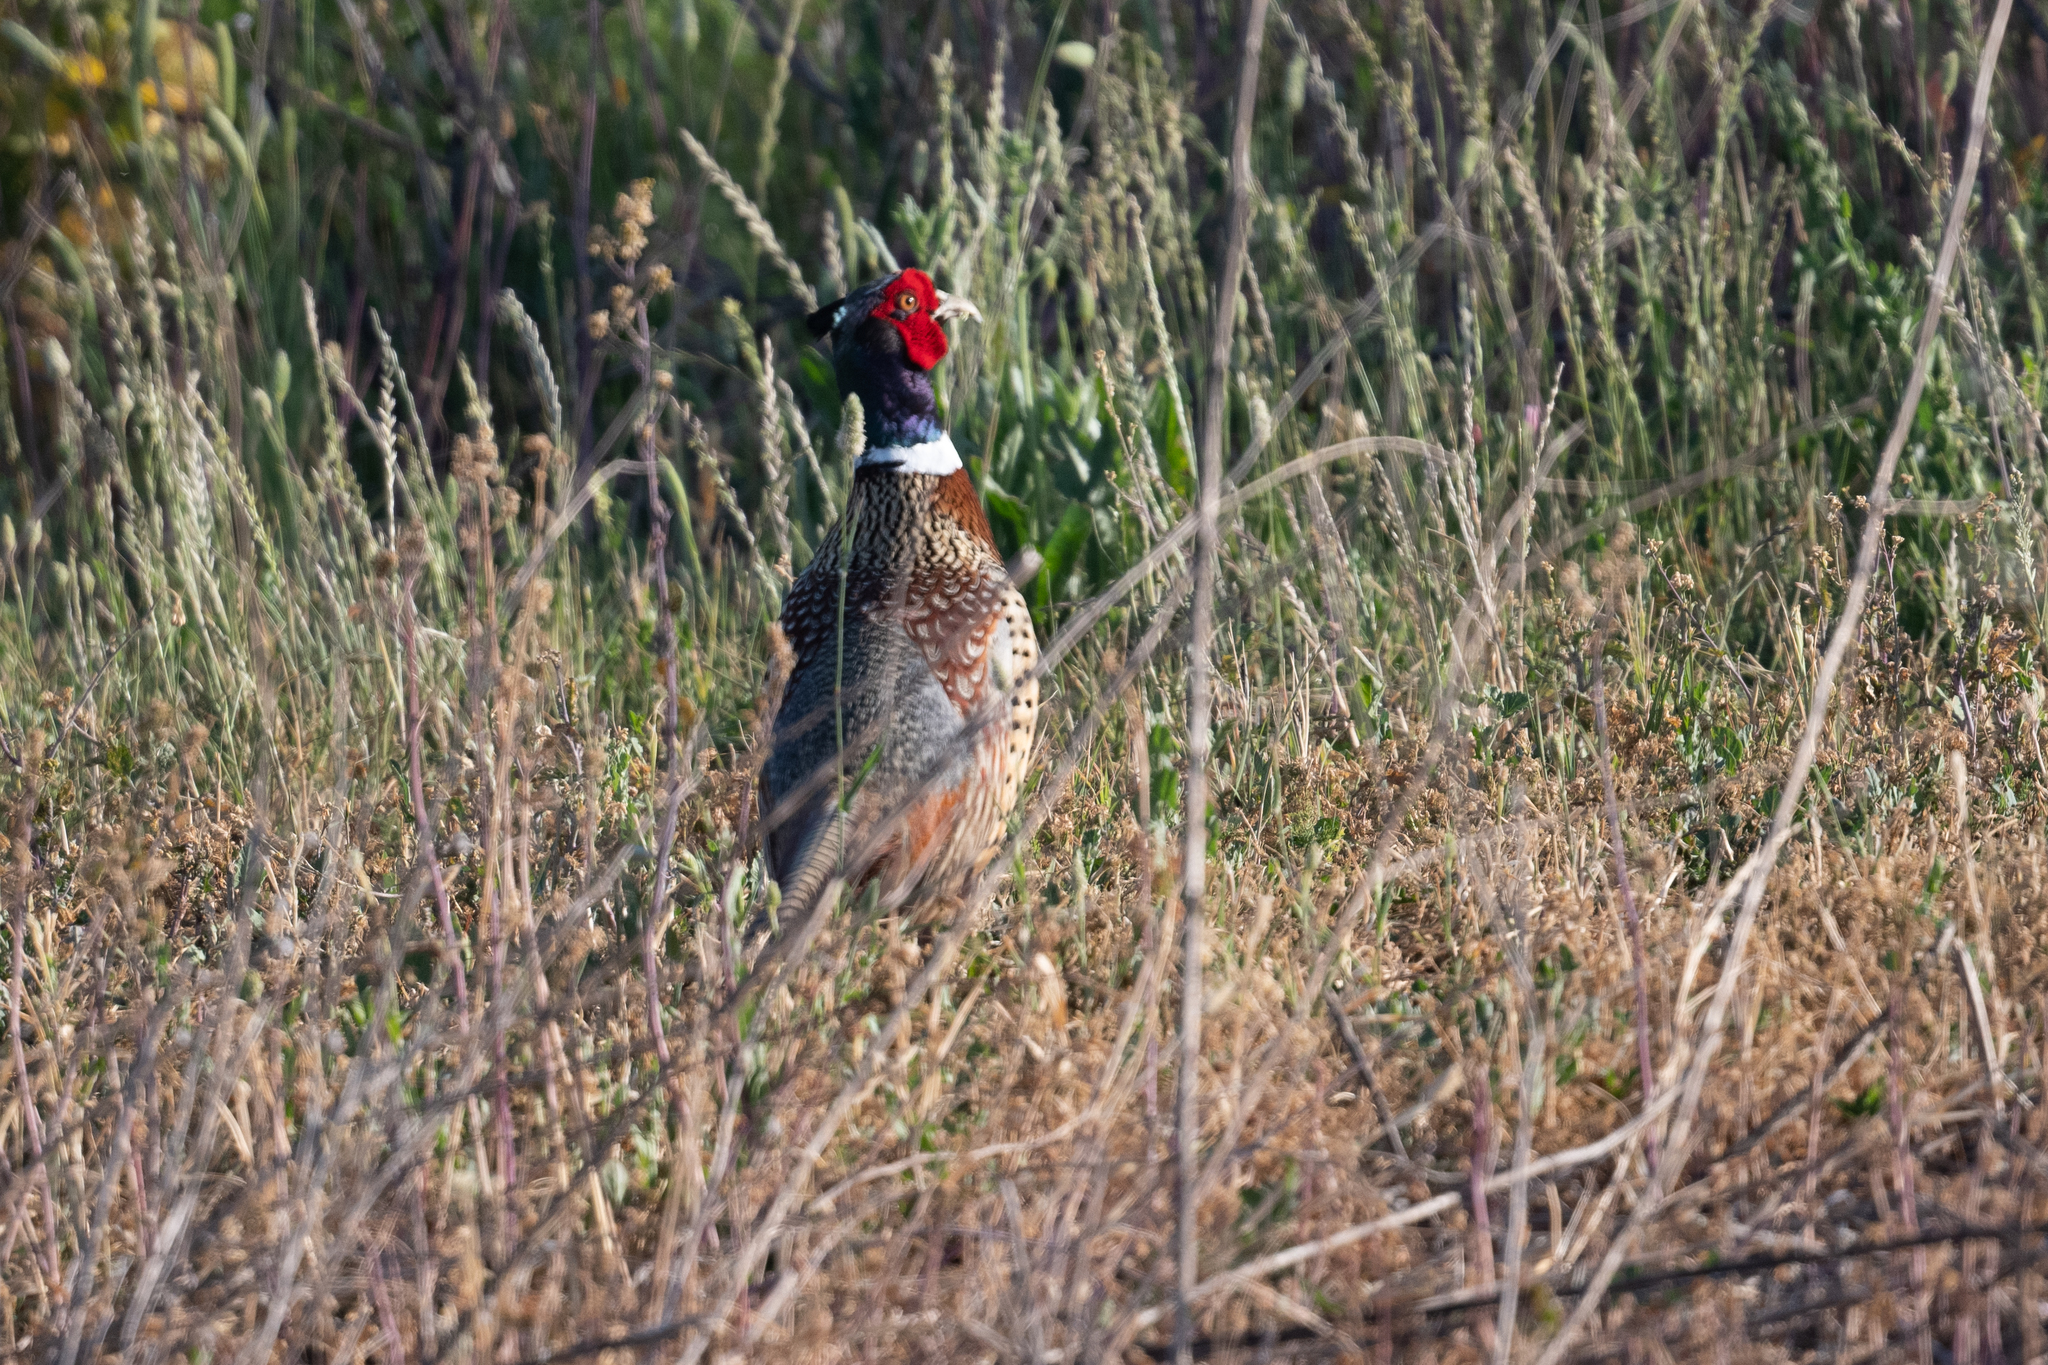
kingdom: Animalia
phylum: Chordata
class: Aves
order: Galliformes
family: Phasianidae
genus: Phasianus
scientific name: Phasianus colchicus
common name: Common pheasant
